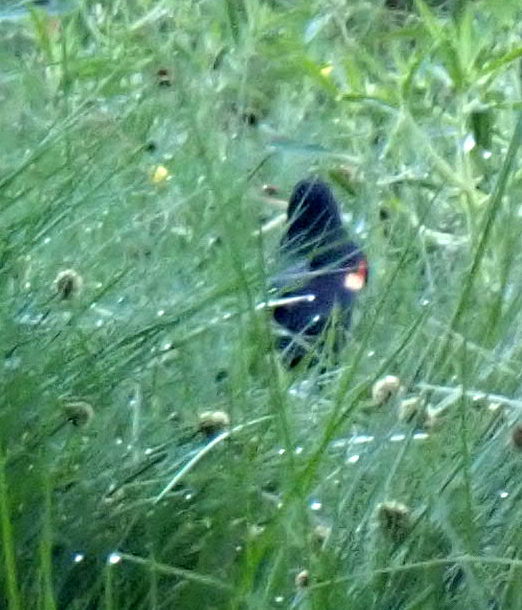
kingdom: Animalia
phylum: Chordata
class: Aves
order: Passeriformes
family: Icteridae
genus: Agelaius
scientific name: Agelaius phoeniceus
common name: Red-winged blackbird
